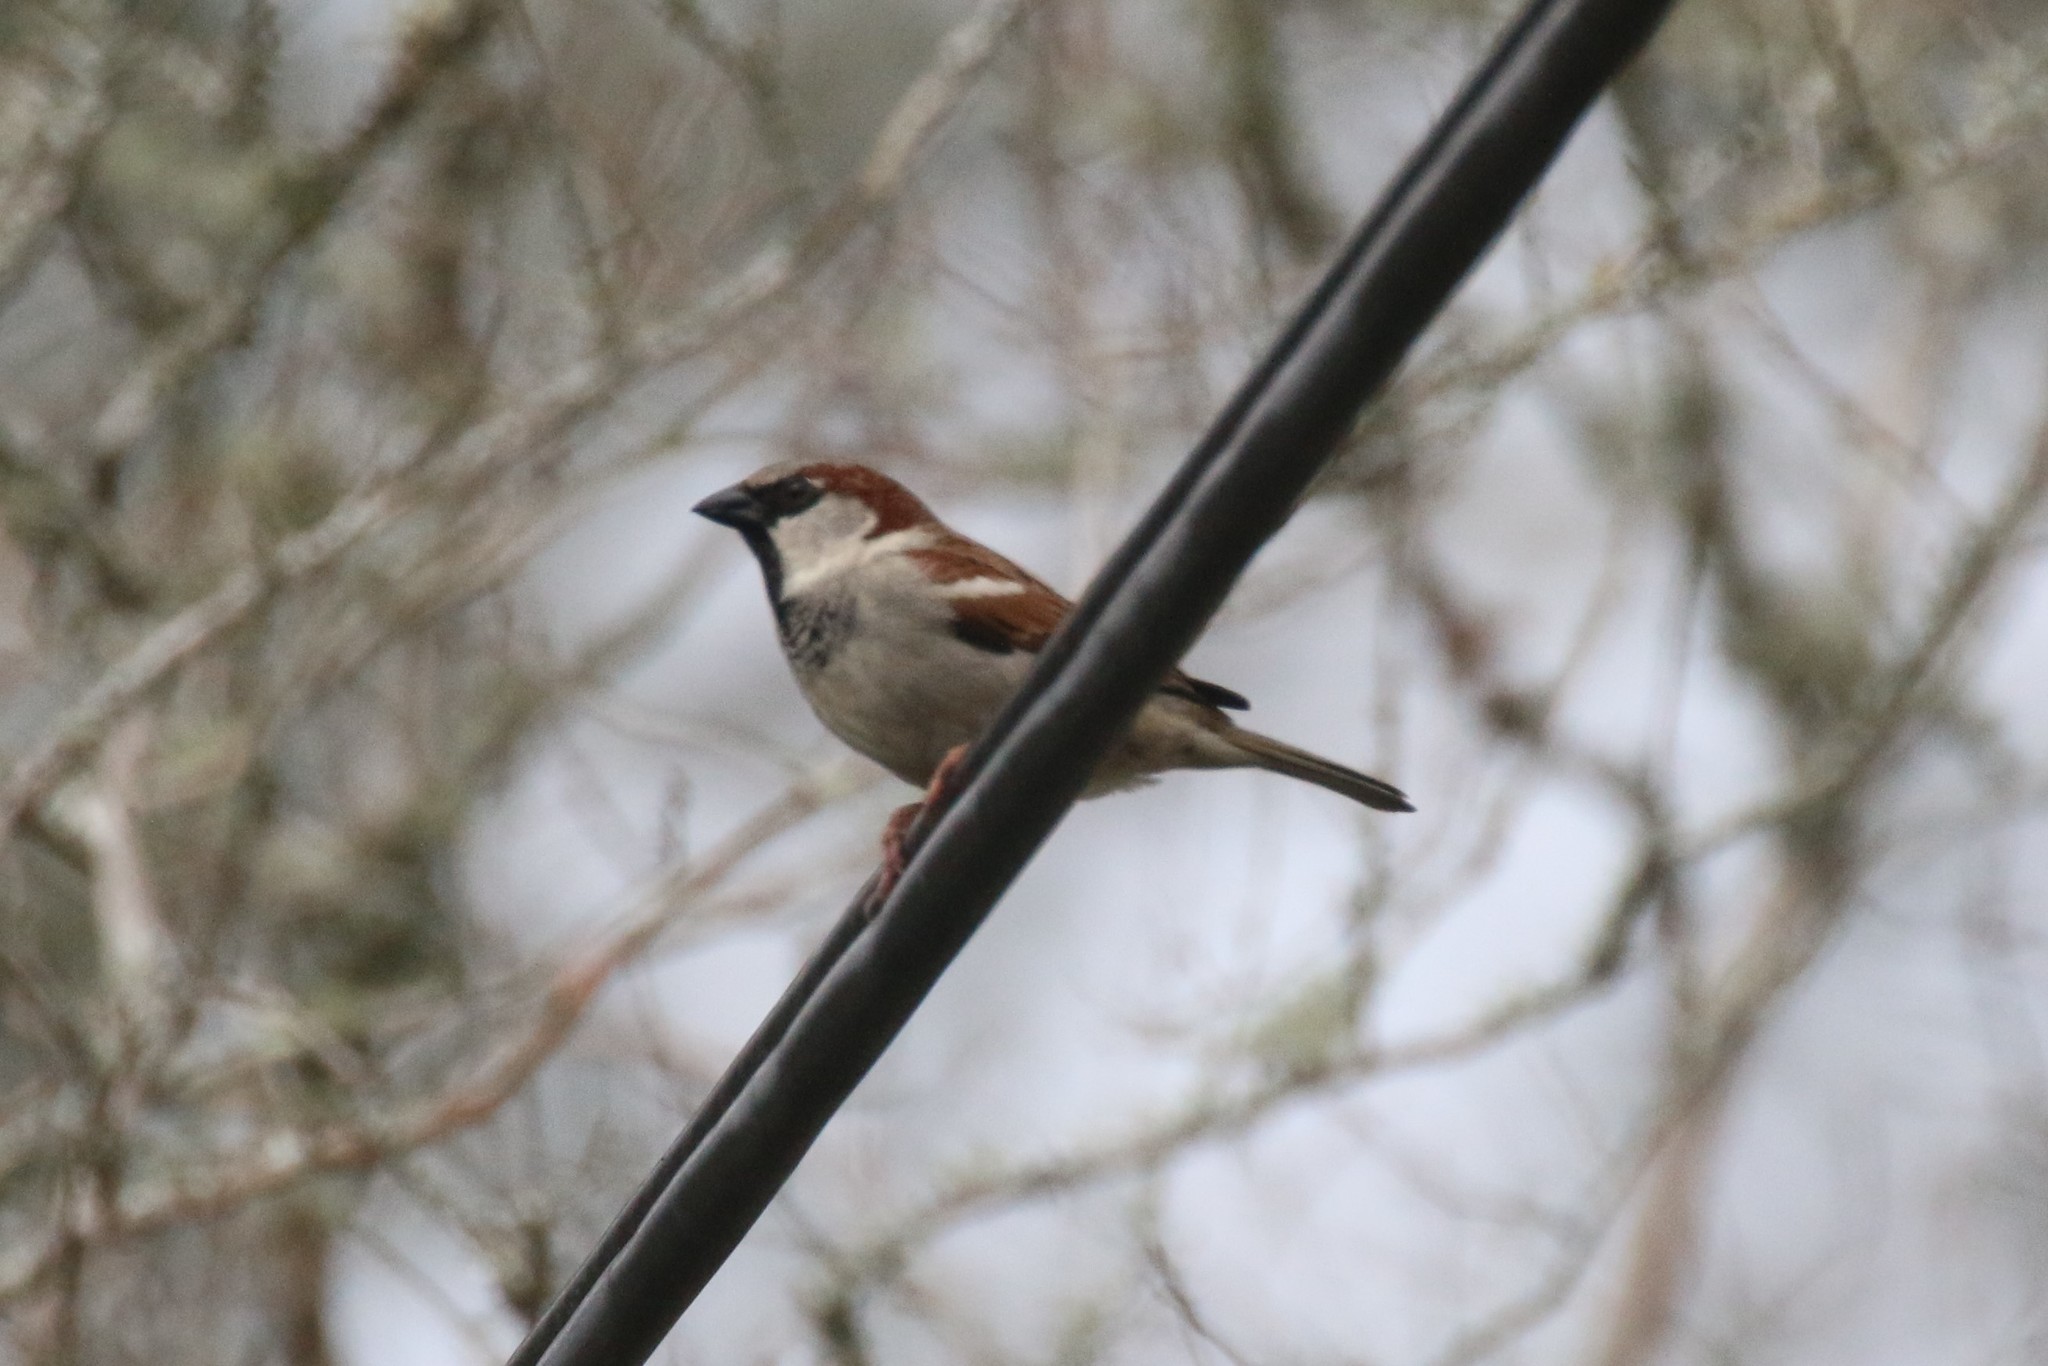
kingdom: Animalia
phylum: Chordata
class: Aves
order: Passeriformes
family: Passeridae
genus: Passer
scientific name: Passer domesticus
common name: House sparrow
